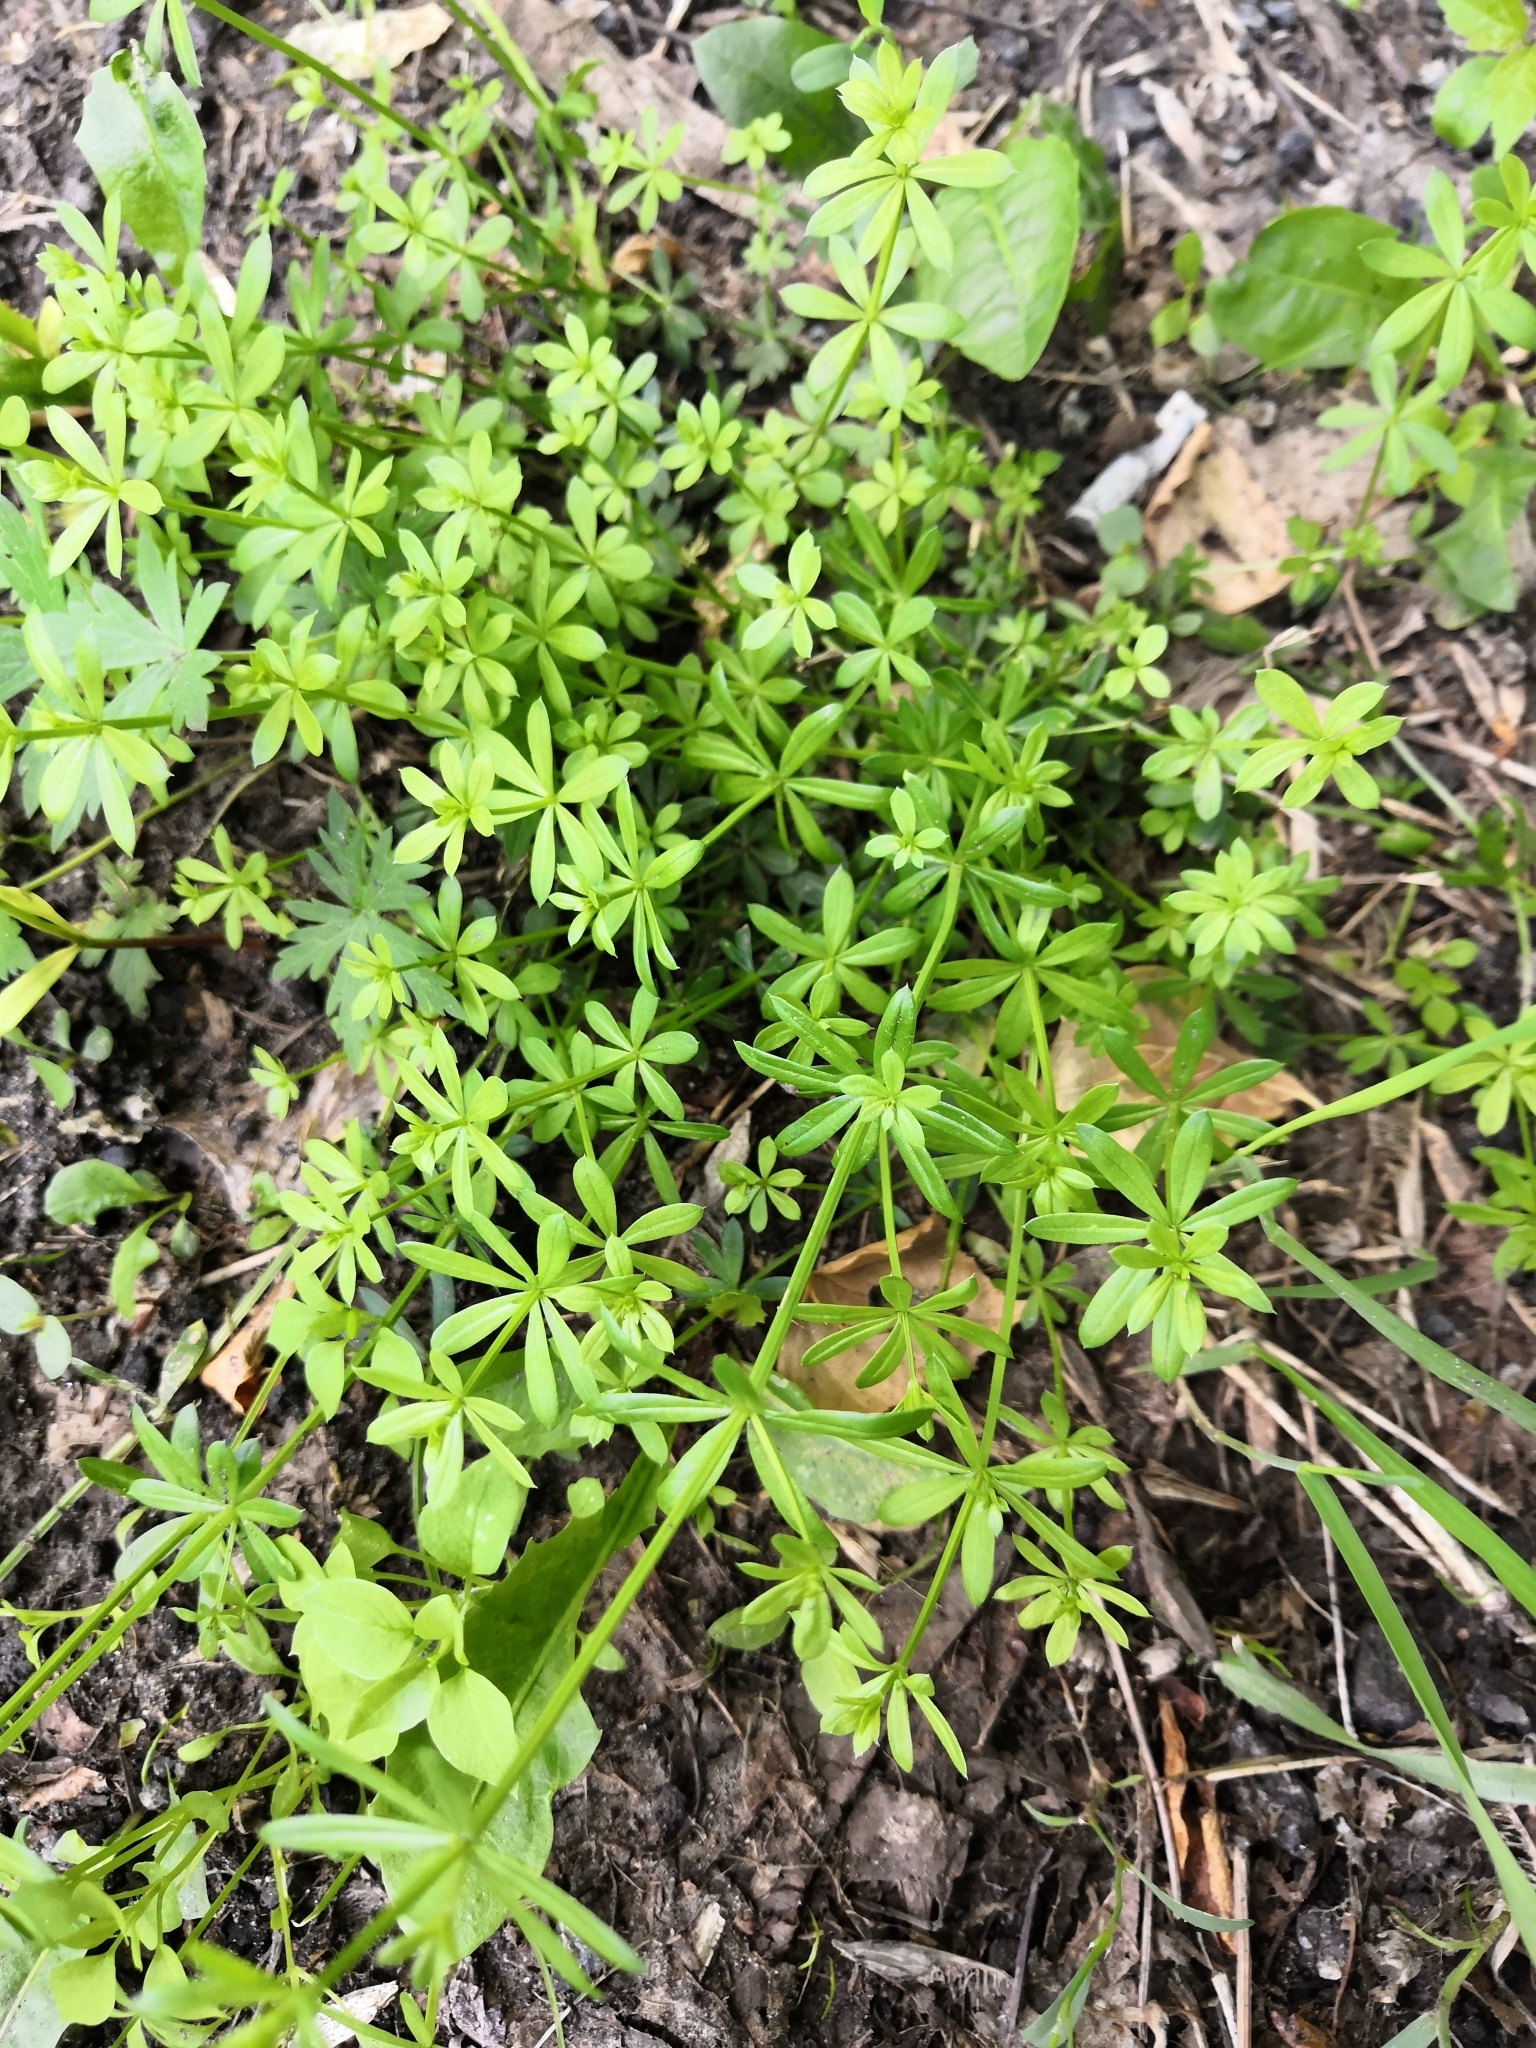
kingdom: Plantae
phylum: Tracheophyta
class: Magnoliopsida
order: Gentianales
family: Rubiaceae
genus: Galium
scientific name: Galium mollugo
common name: Hedge bedstraw
